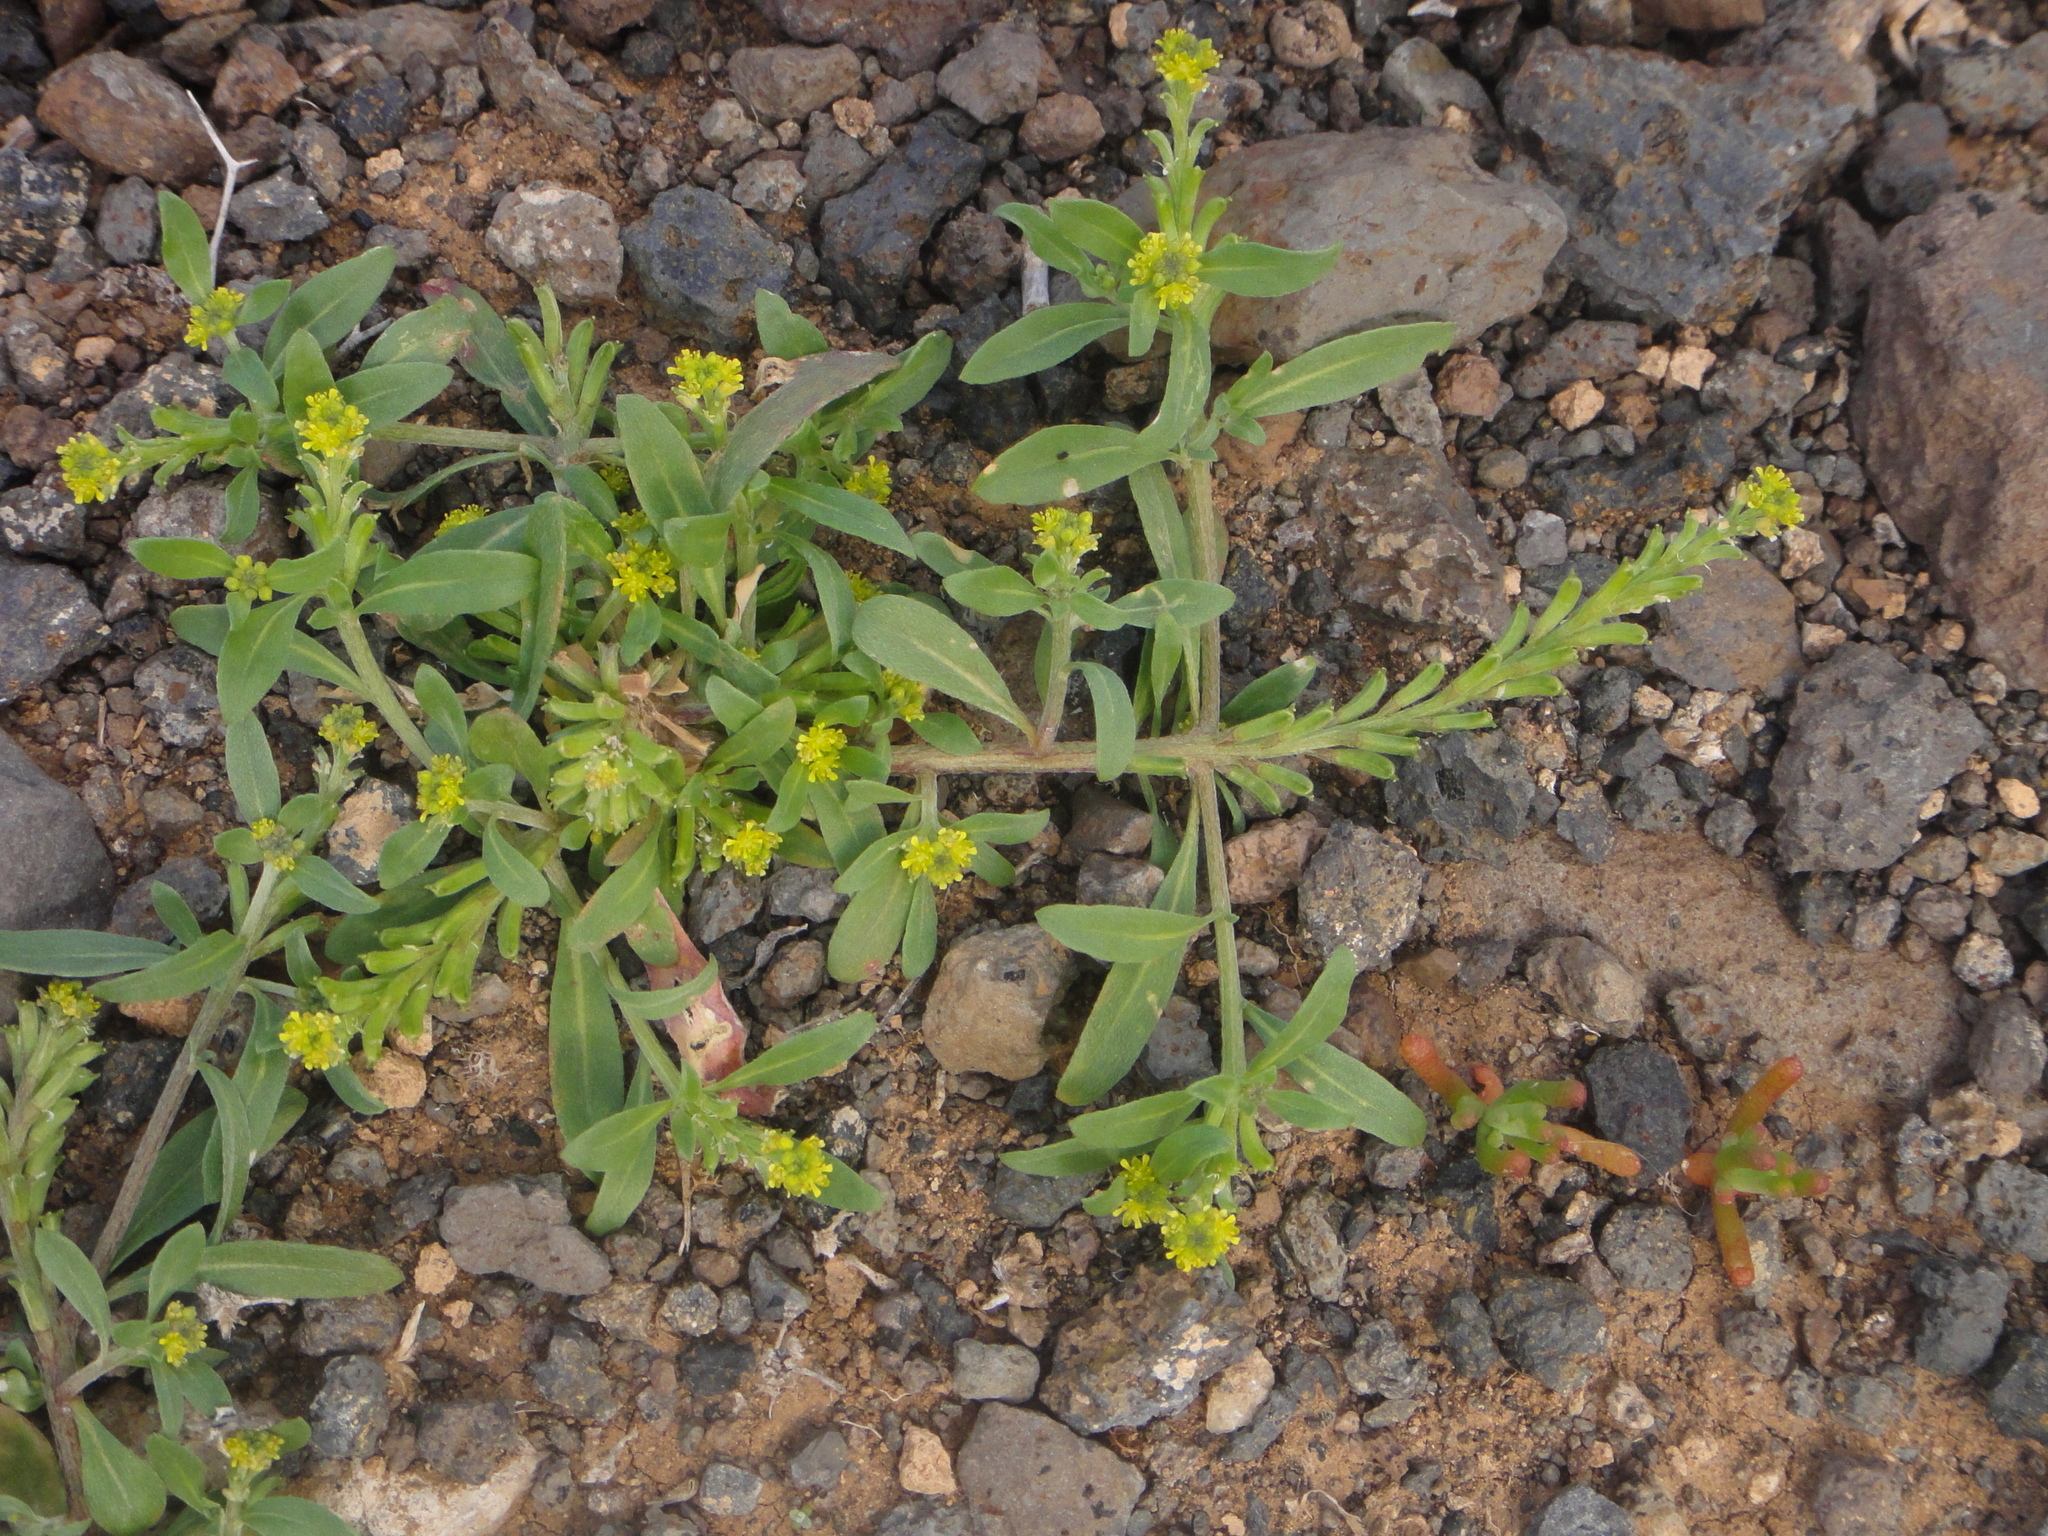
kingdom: Plantae
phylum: Tracheophyta
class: Magnoliopsida
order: Brassicales
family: Brassicaceae
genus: Notoceras
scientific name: Notoceras bicorne
